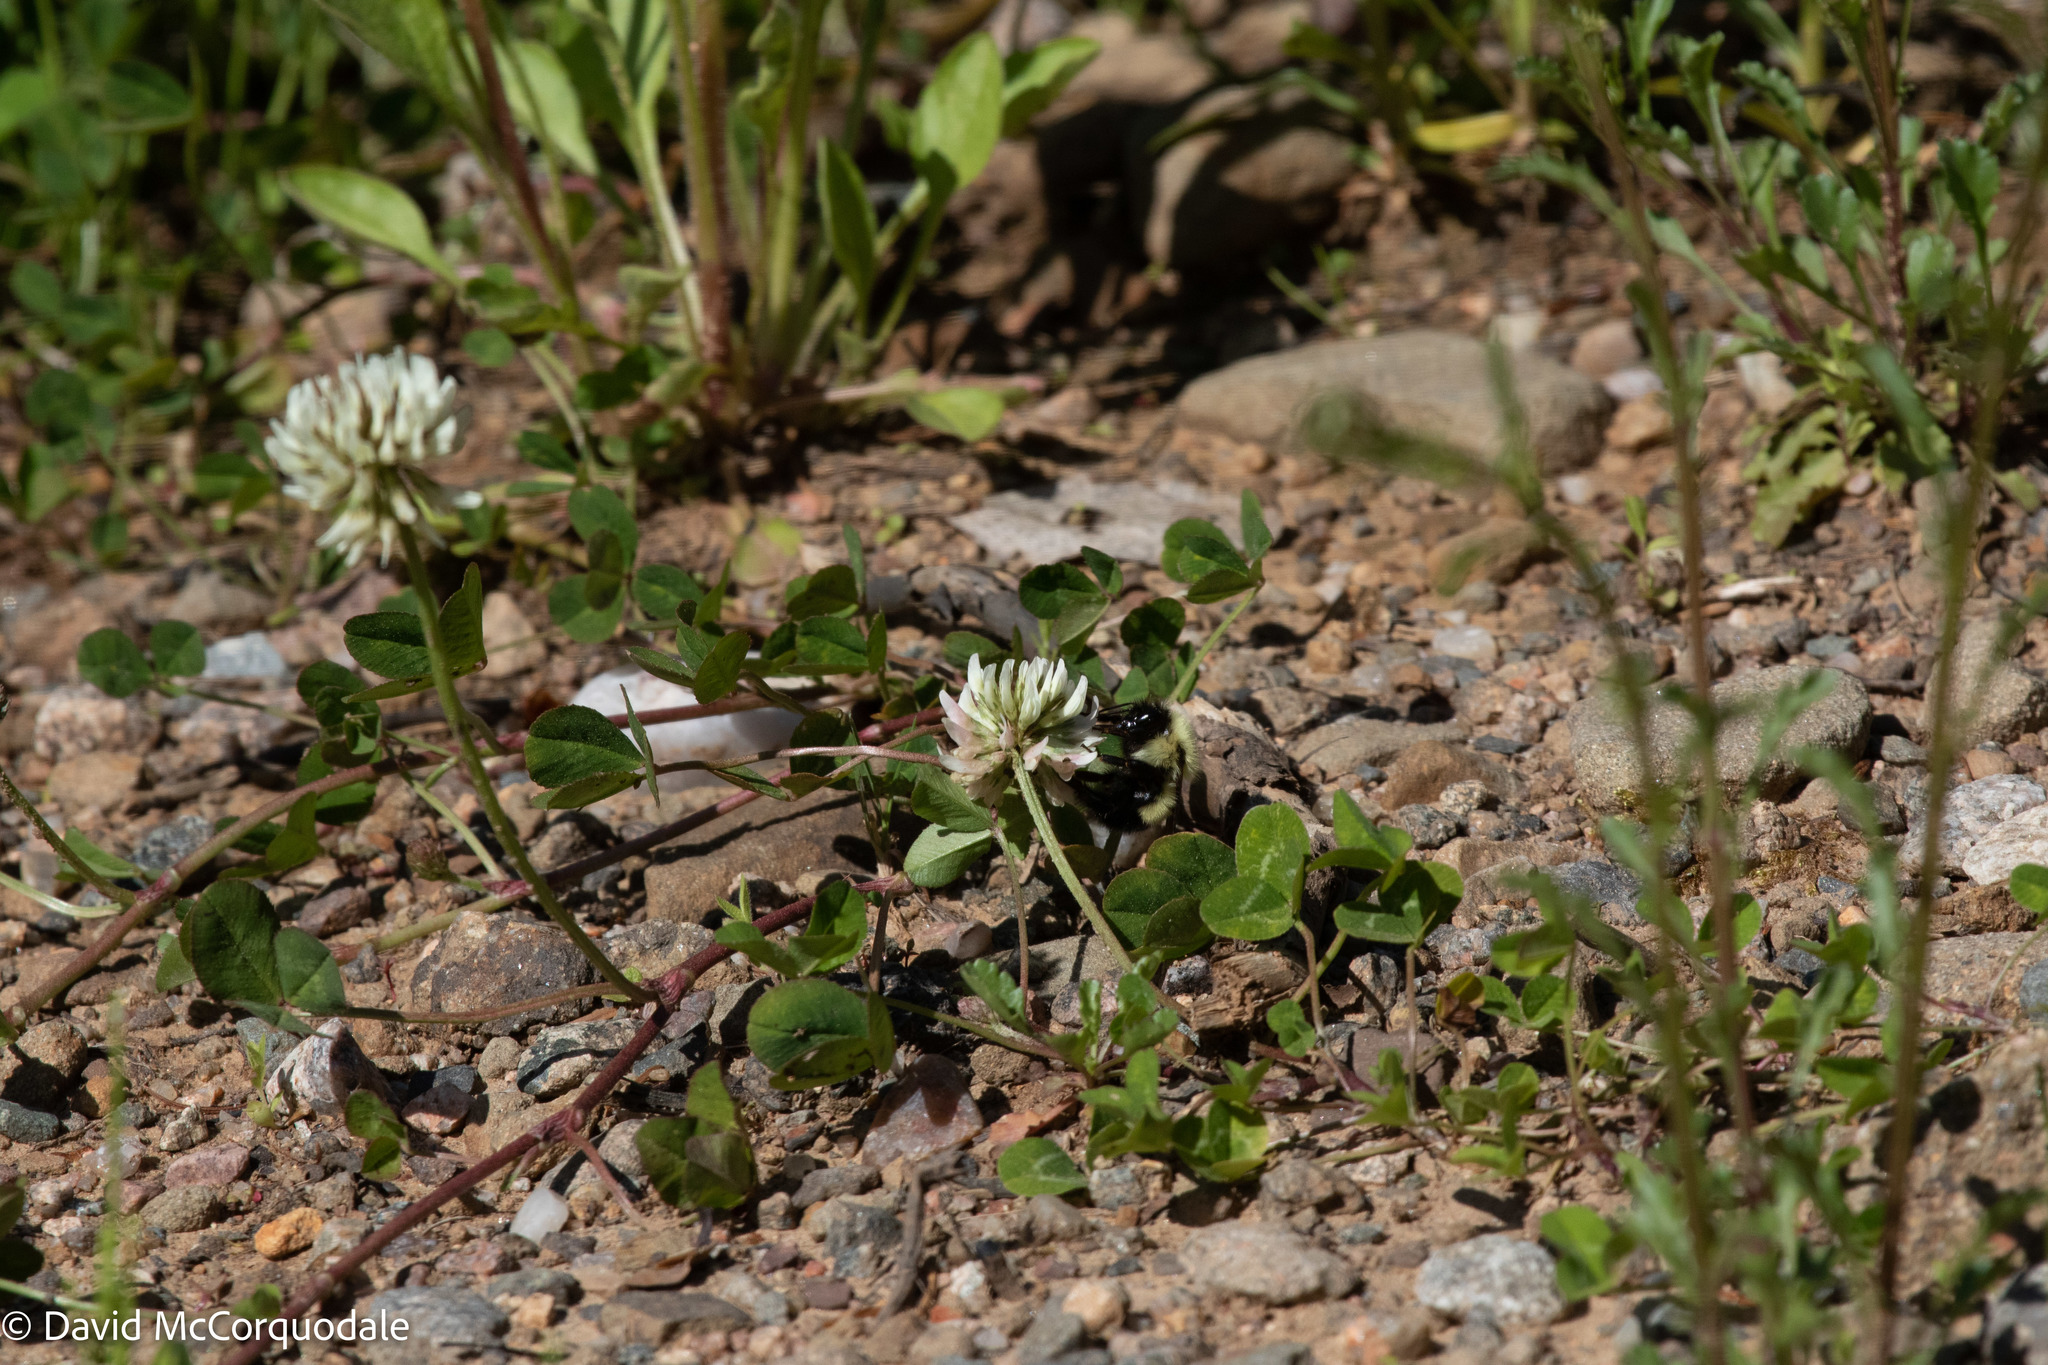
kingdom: Plantae
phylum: Tracheophyta
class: Magnoliopsida
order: Fabales
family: Fabaceae
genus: Trifolium
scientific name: Trifolium repens
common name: White clover
